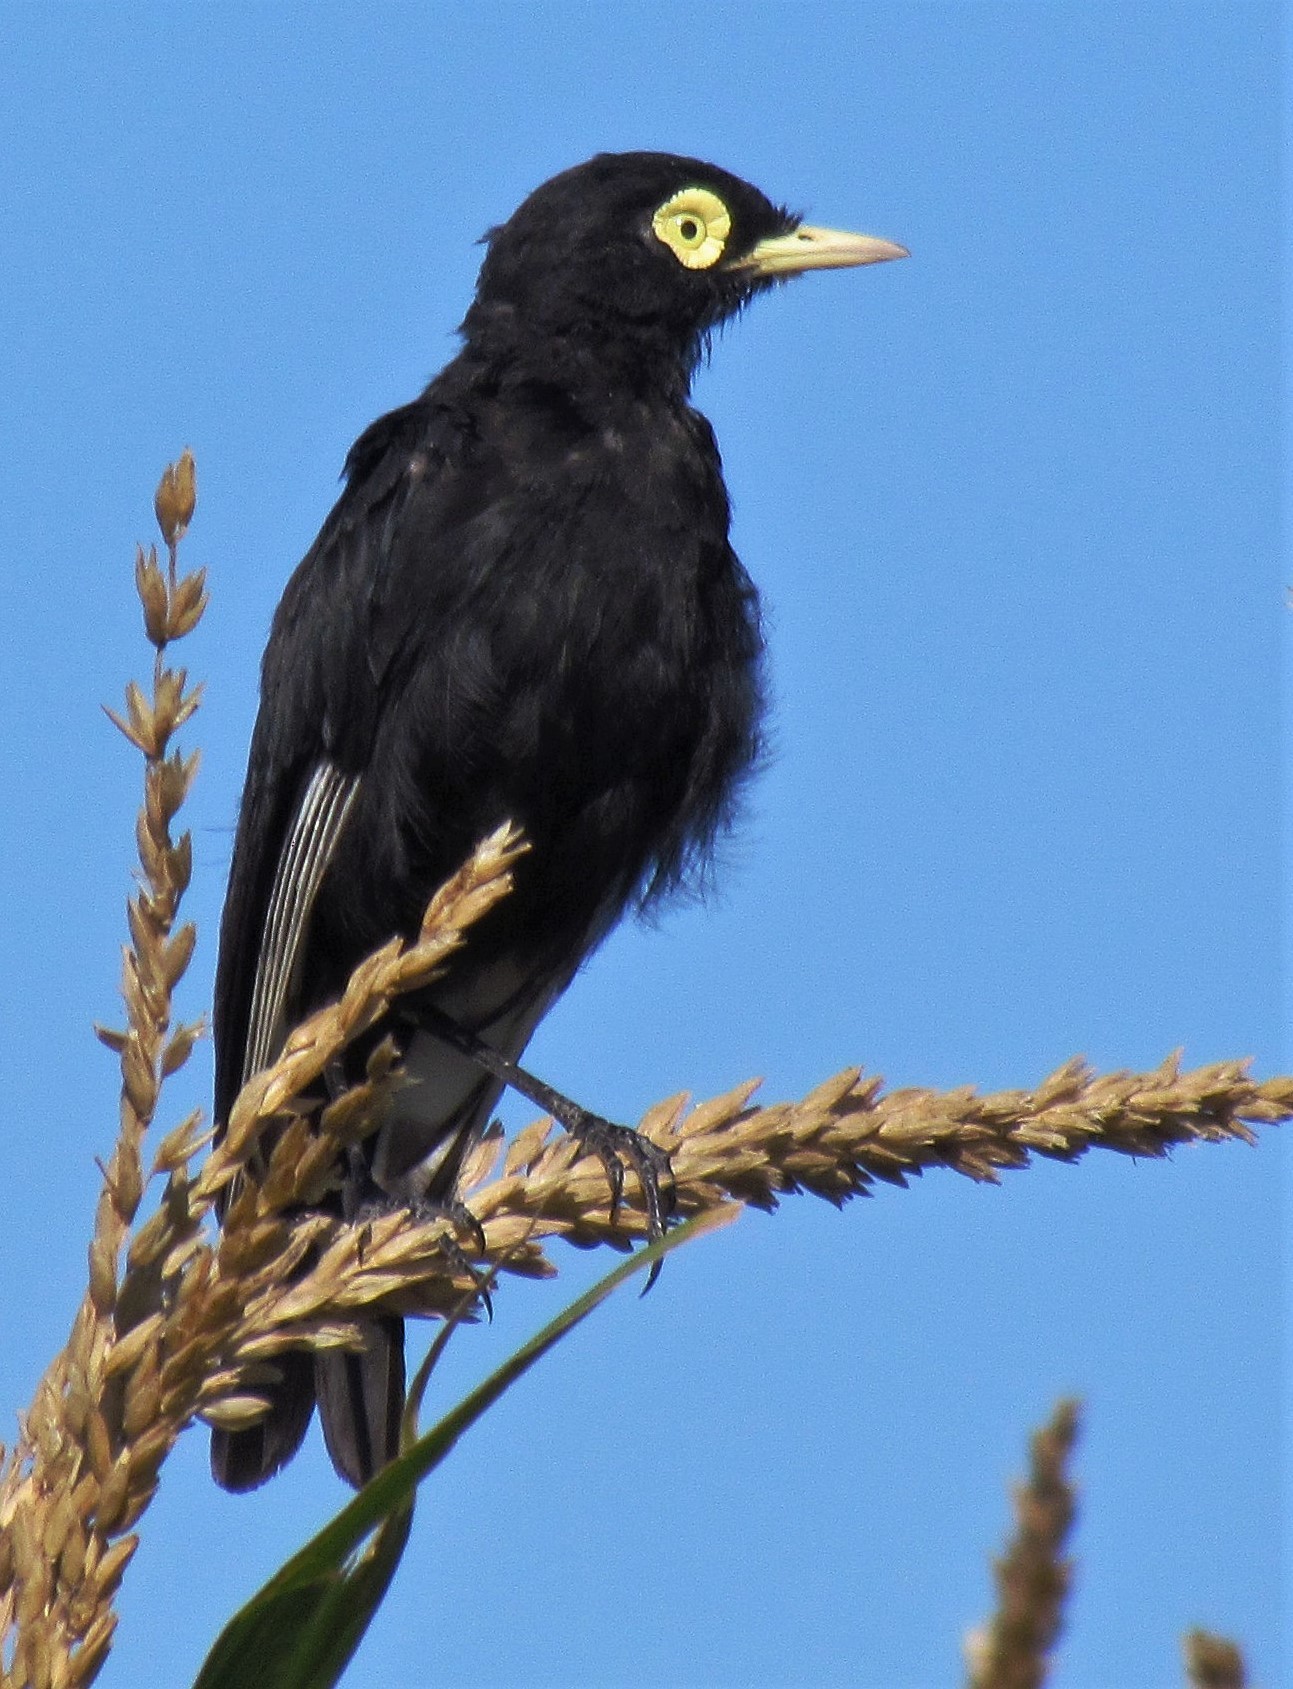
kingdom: Animalia
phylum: Chordata
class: Aves
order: Passeriformes
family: Tyrannidae
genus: Hymenops
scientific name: Hymenops perspicillatus
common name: Spectacled tyrant
